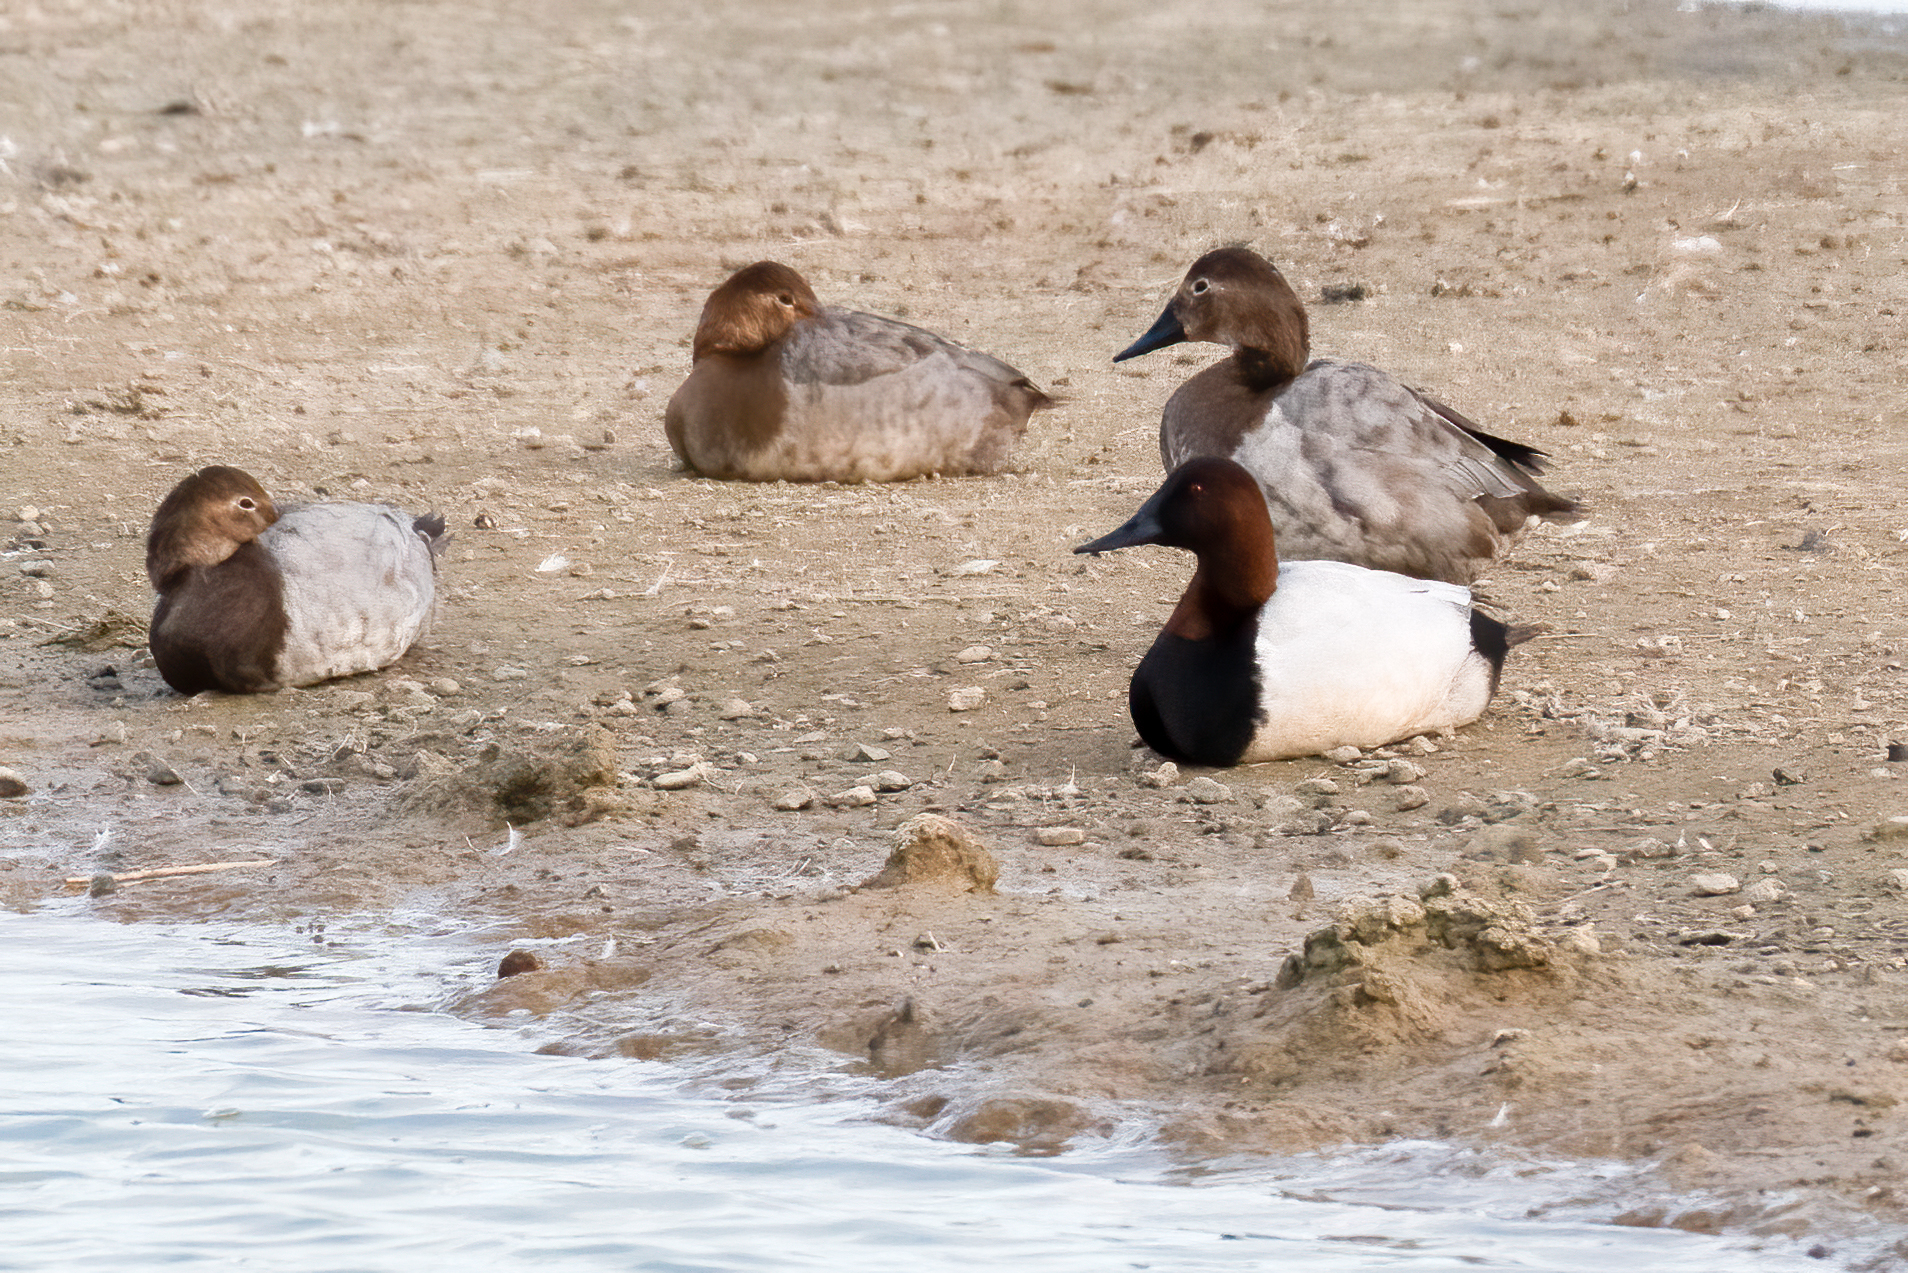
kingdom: Animalia
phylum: Chordata
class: Aves
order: Anseriformes
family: Anatidae
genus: Aythya
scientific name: Aythya valisineria
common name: Canvasback
